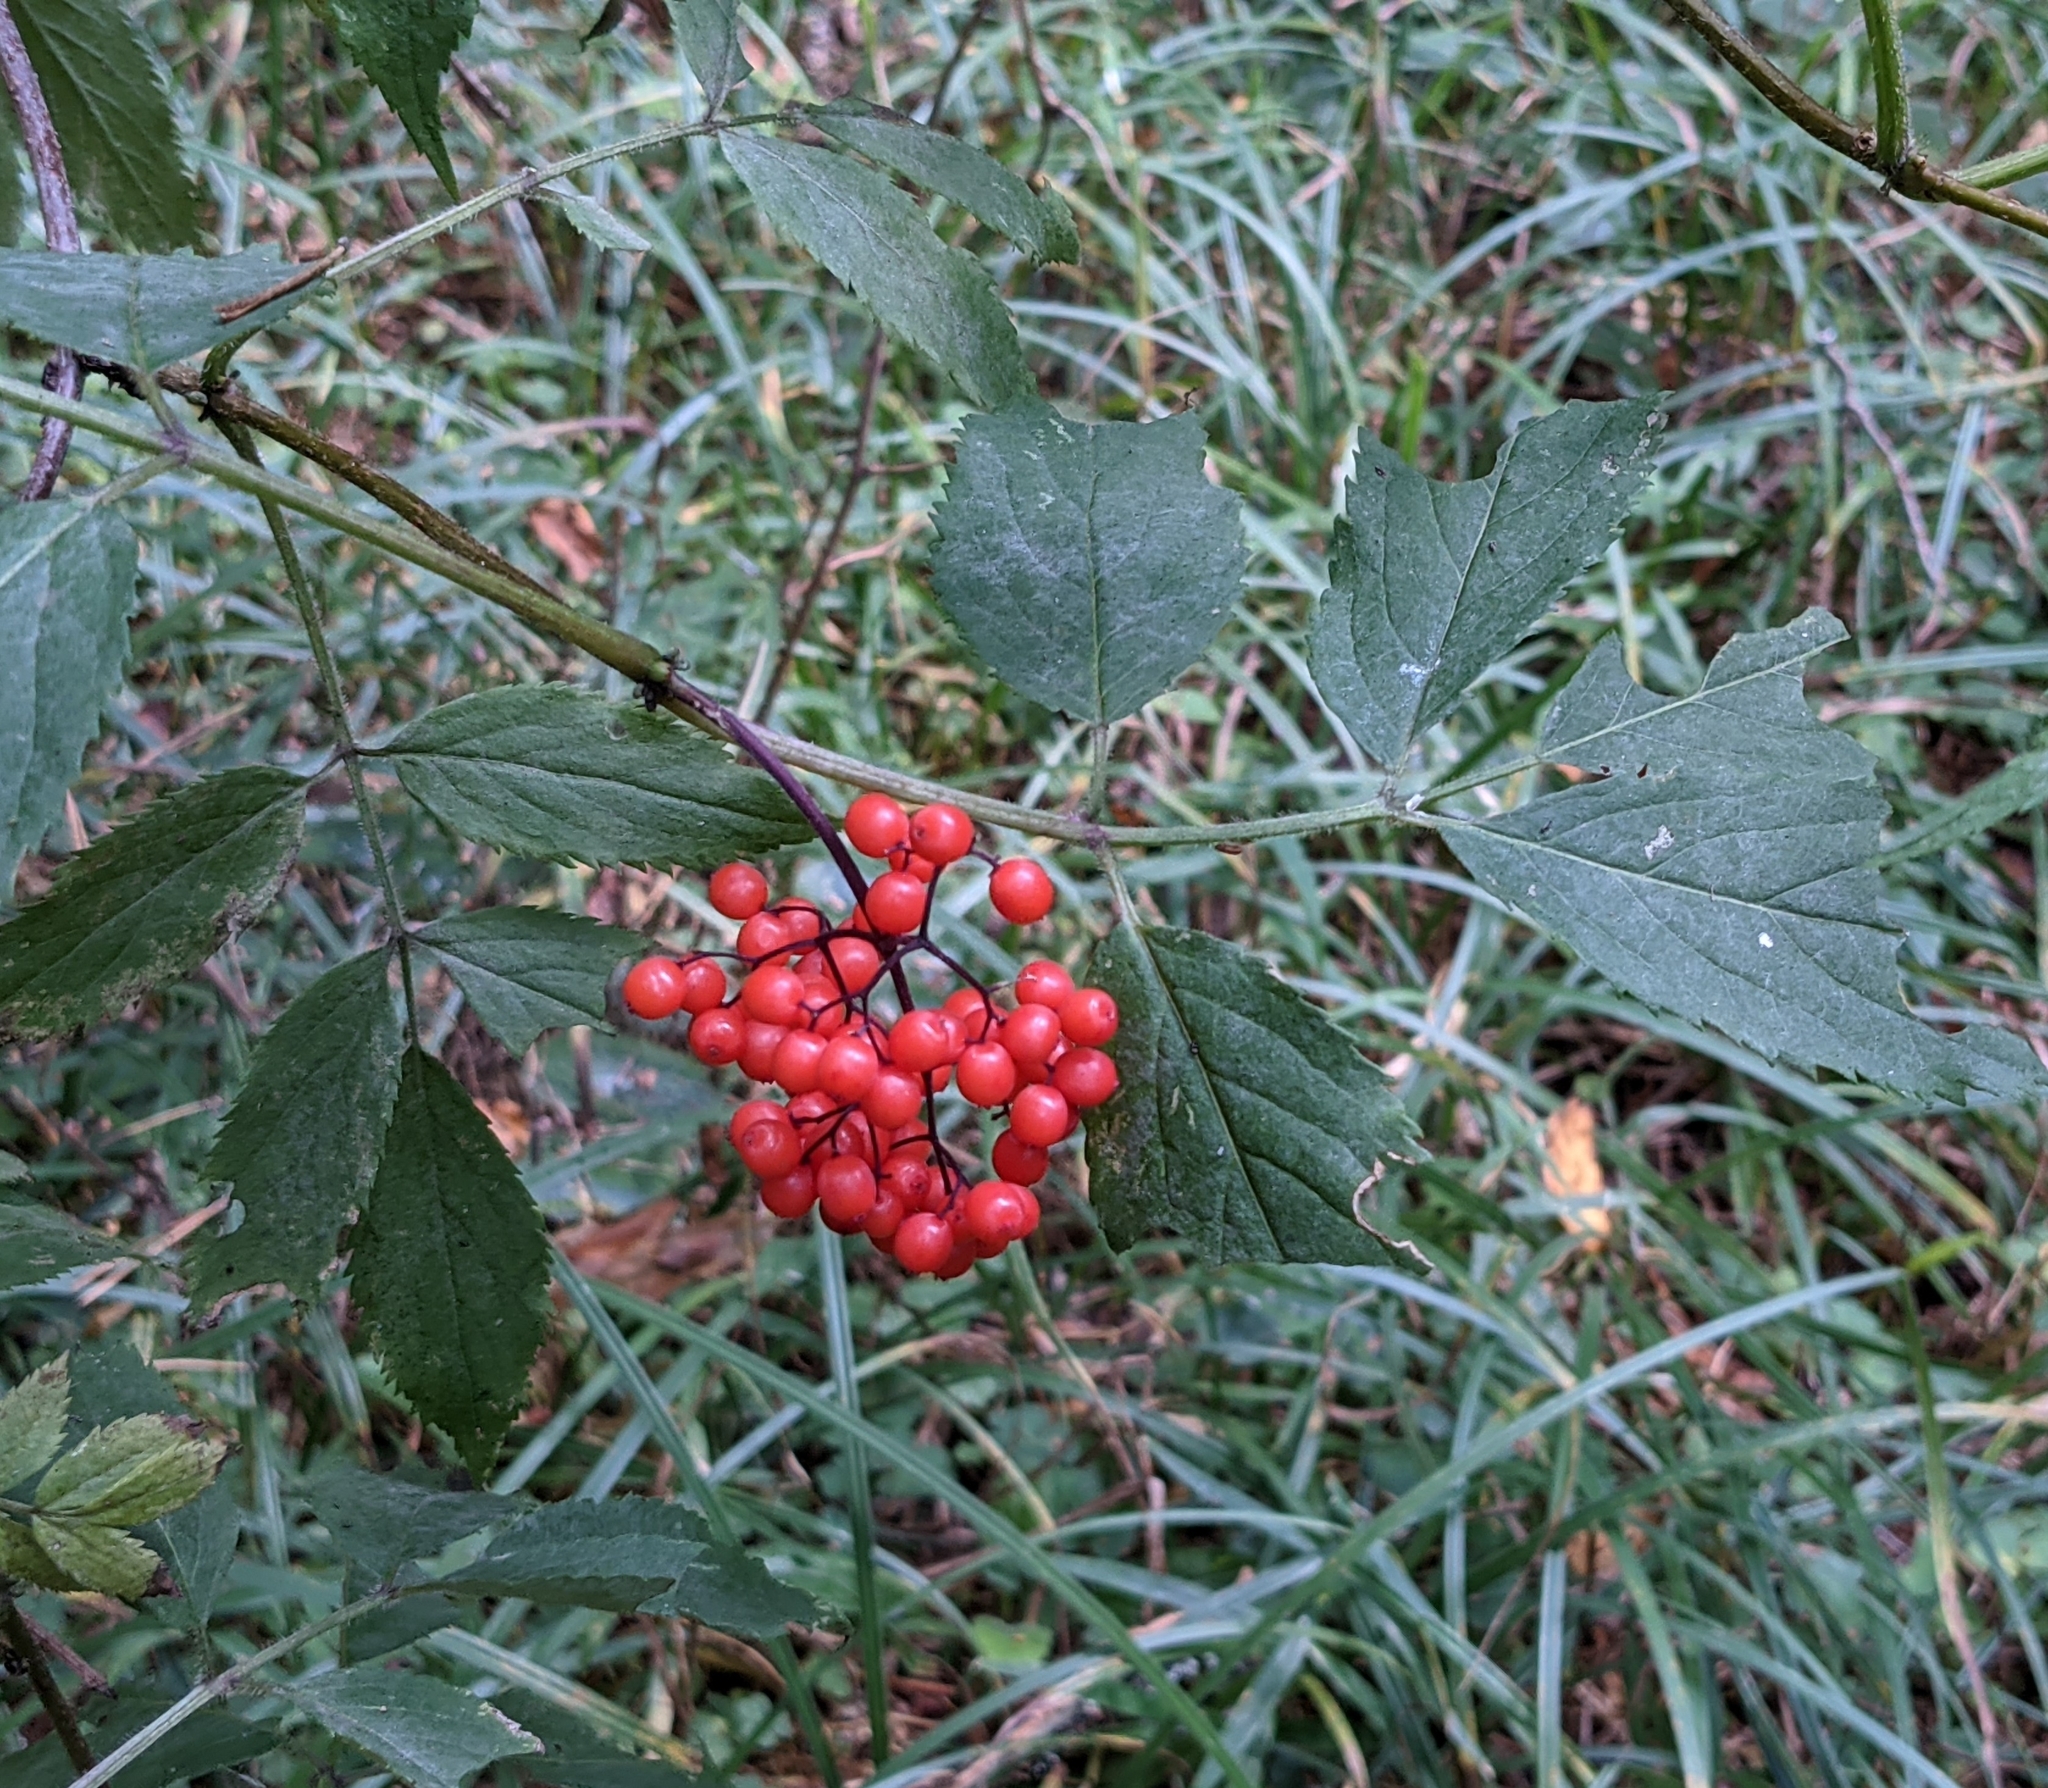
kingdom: Plantae
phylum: Tracheophyta
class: Magnoliopsida
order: Dipsacales
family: Viburnaceae
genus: Sambucus
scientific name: Sambucus racemosa
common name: Red-berried elder
